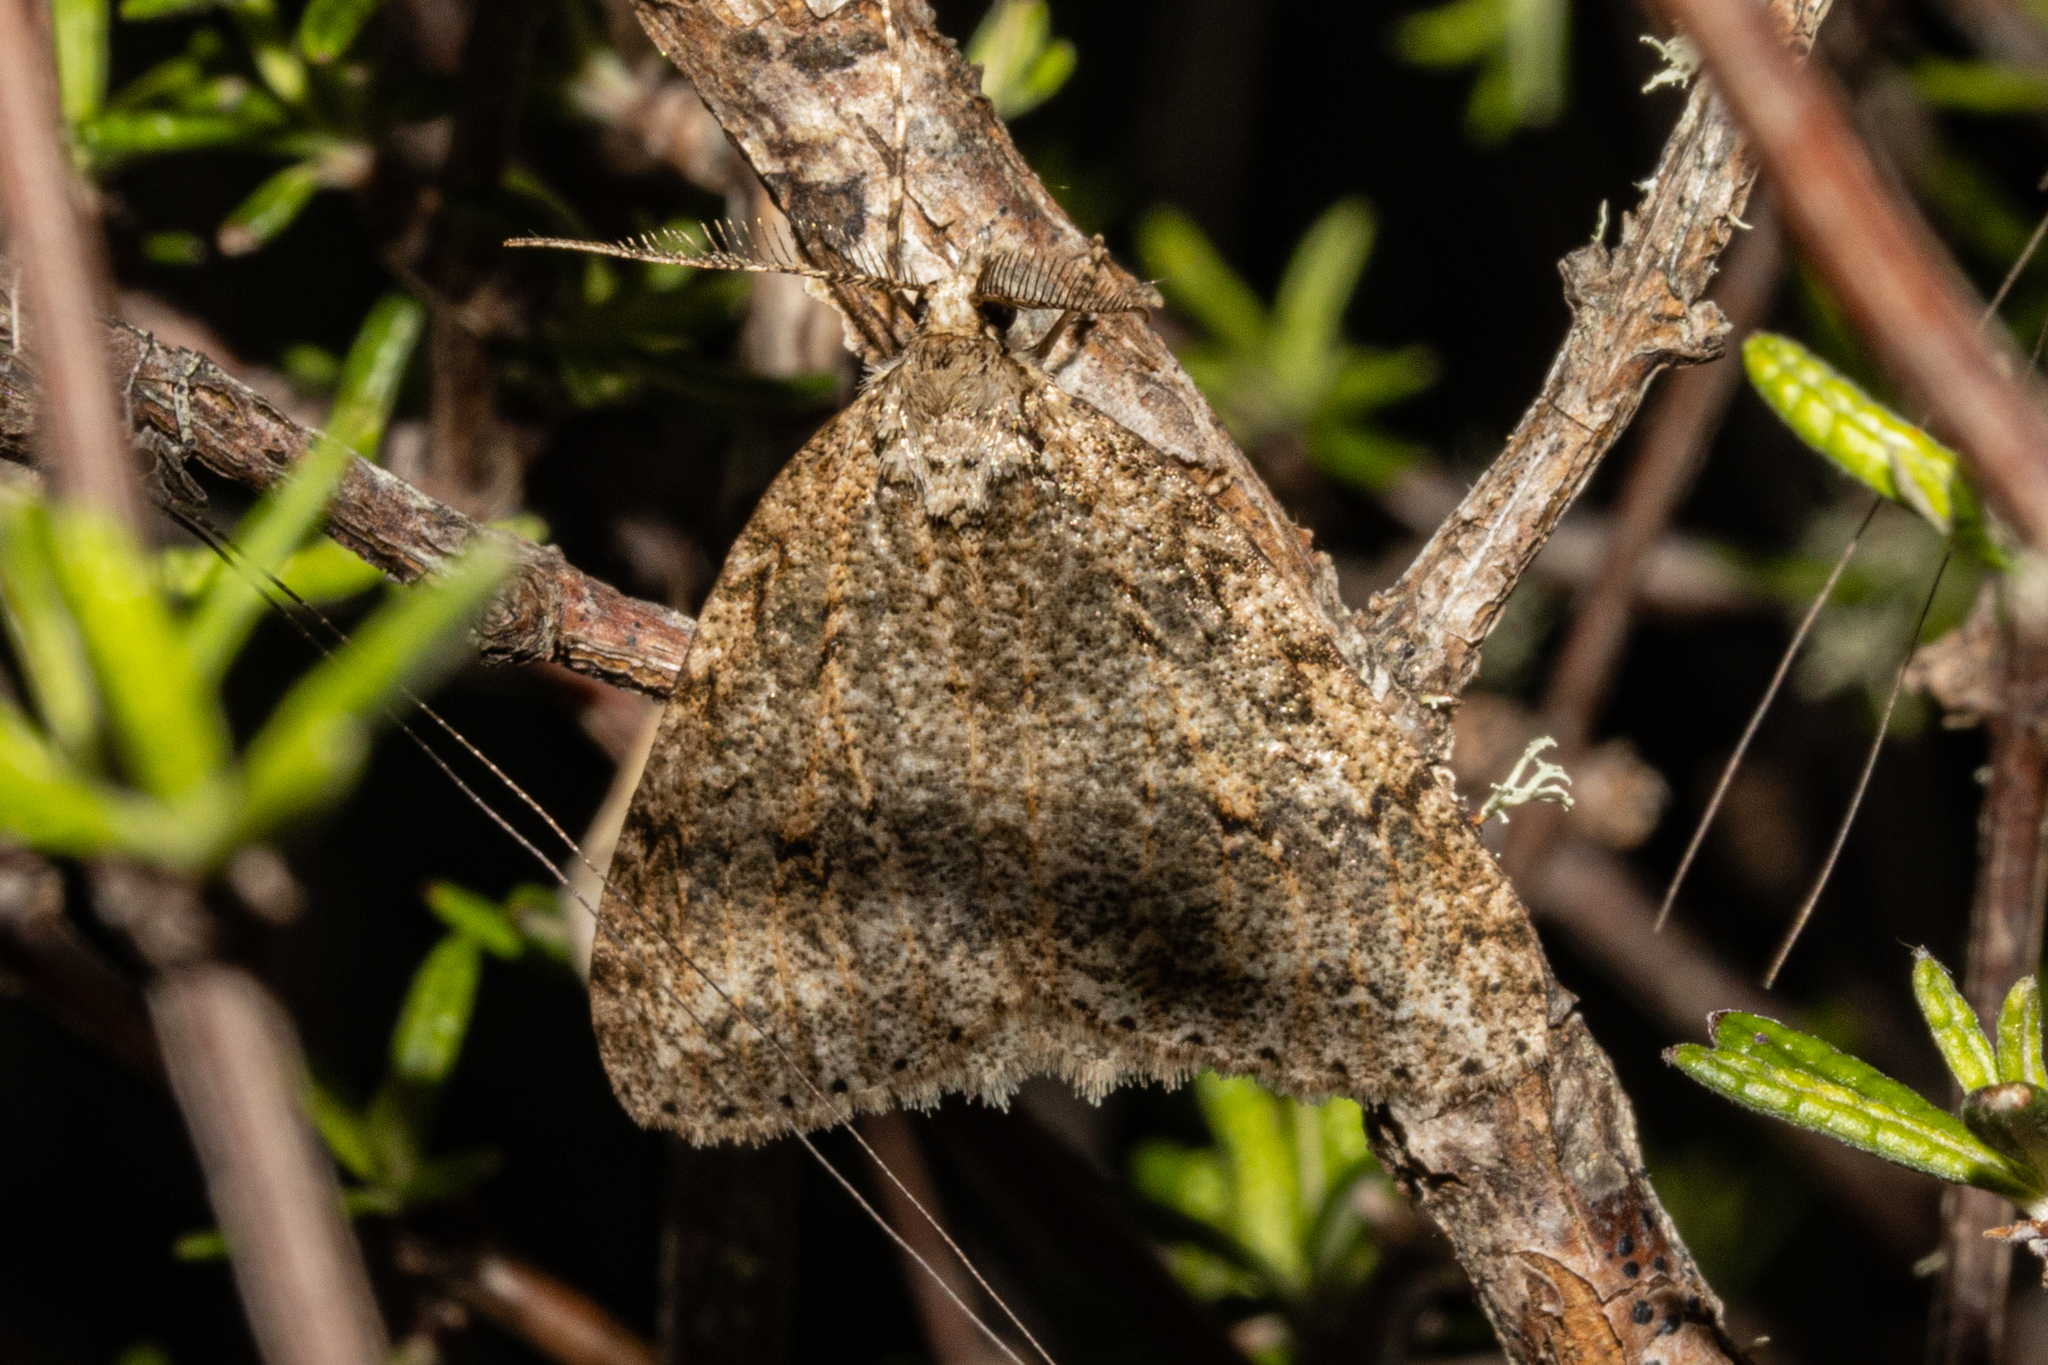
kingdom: Animalia
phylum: Arthropoda
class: Insecta
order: Lepidoptera
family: Geometridae
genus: Pseudocoremia
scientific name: Pseudocoremia rudisata
